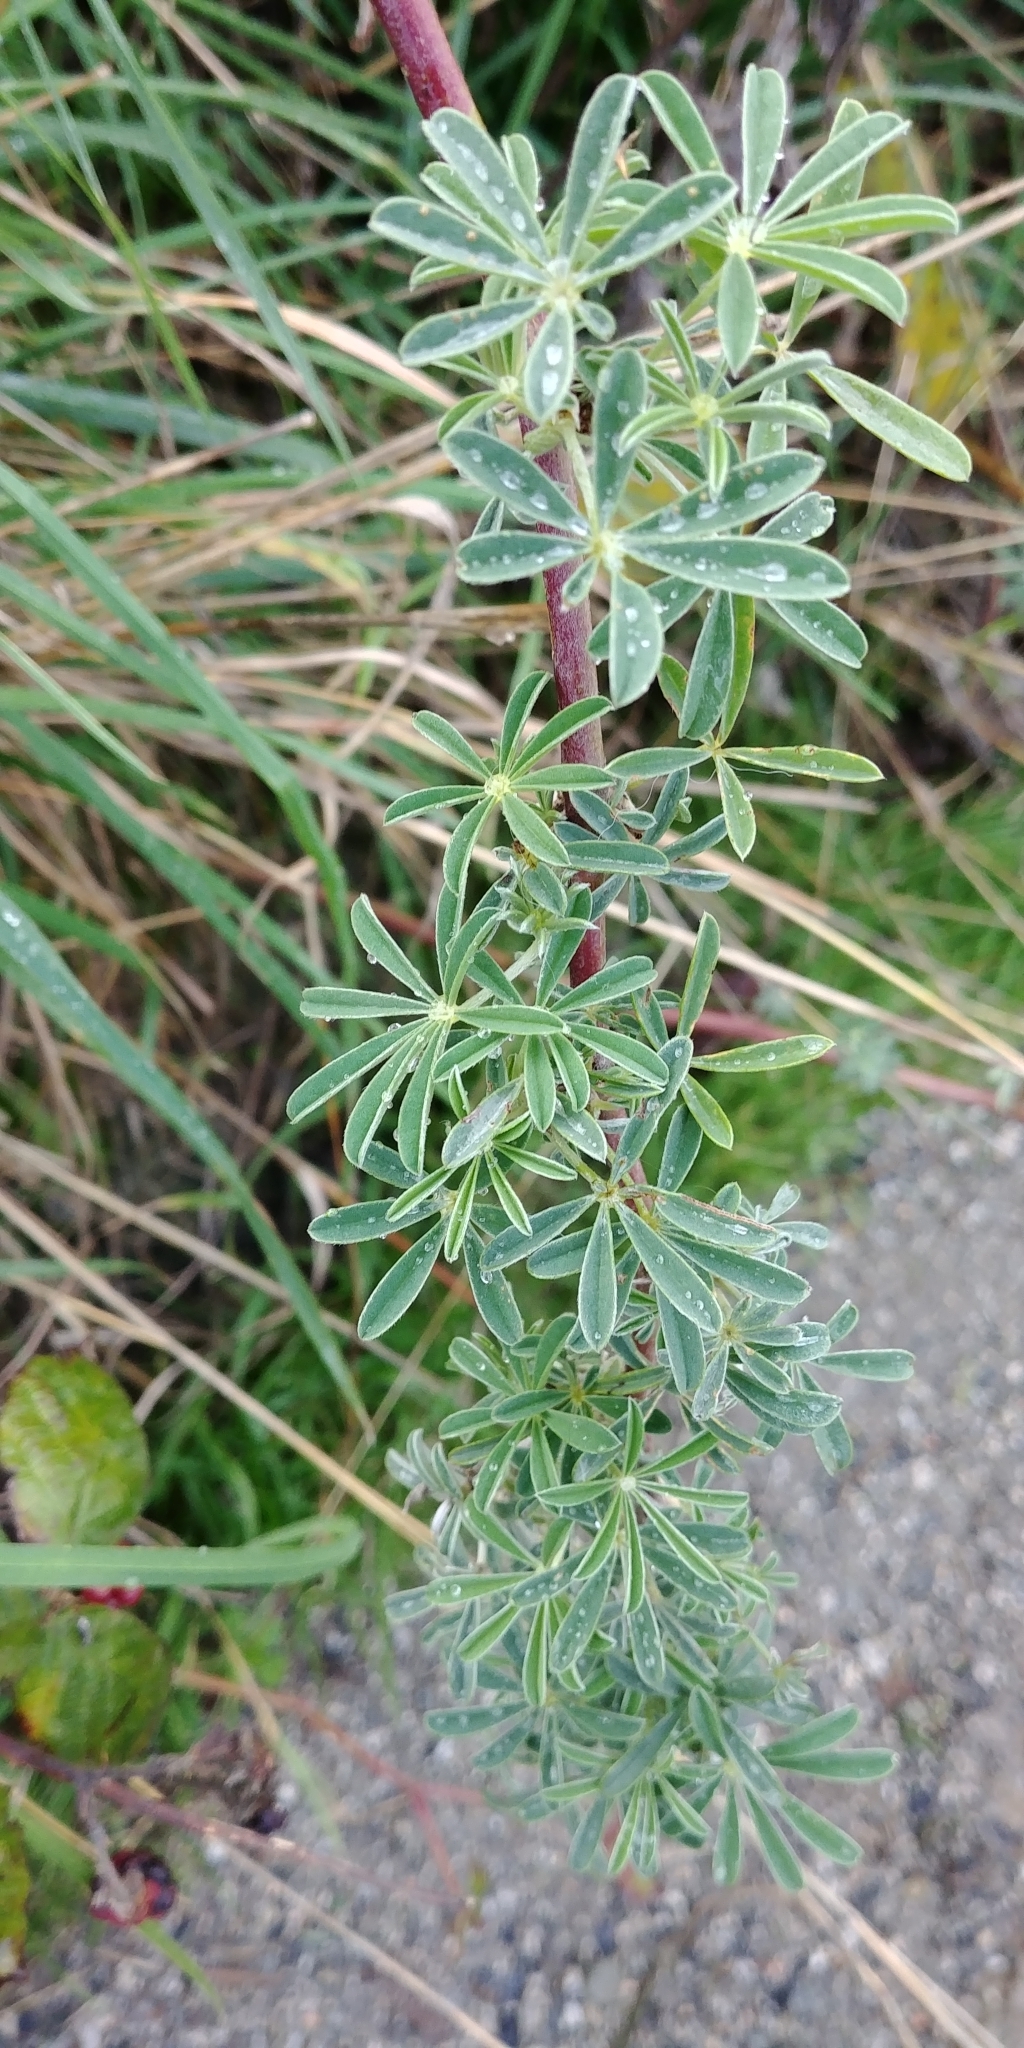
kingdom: Plantae
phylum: Tracheophyta
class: Magnoliopsida
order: Fabales
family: Fabaceae
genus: Lupinus
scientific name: Lupinus arboreus
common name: Yellow bush lupine
